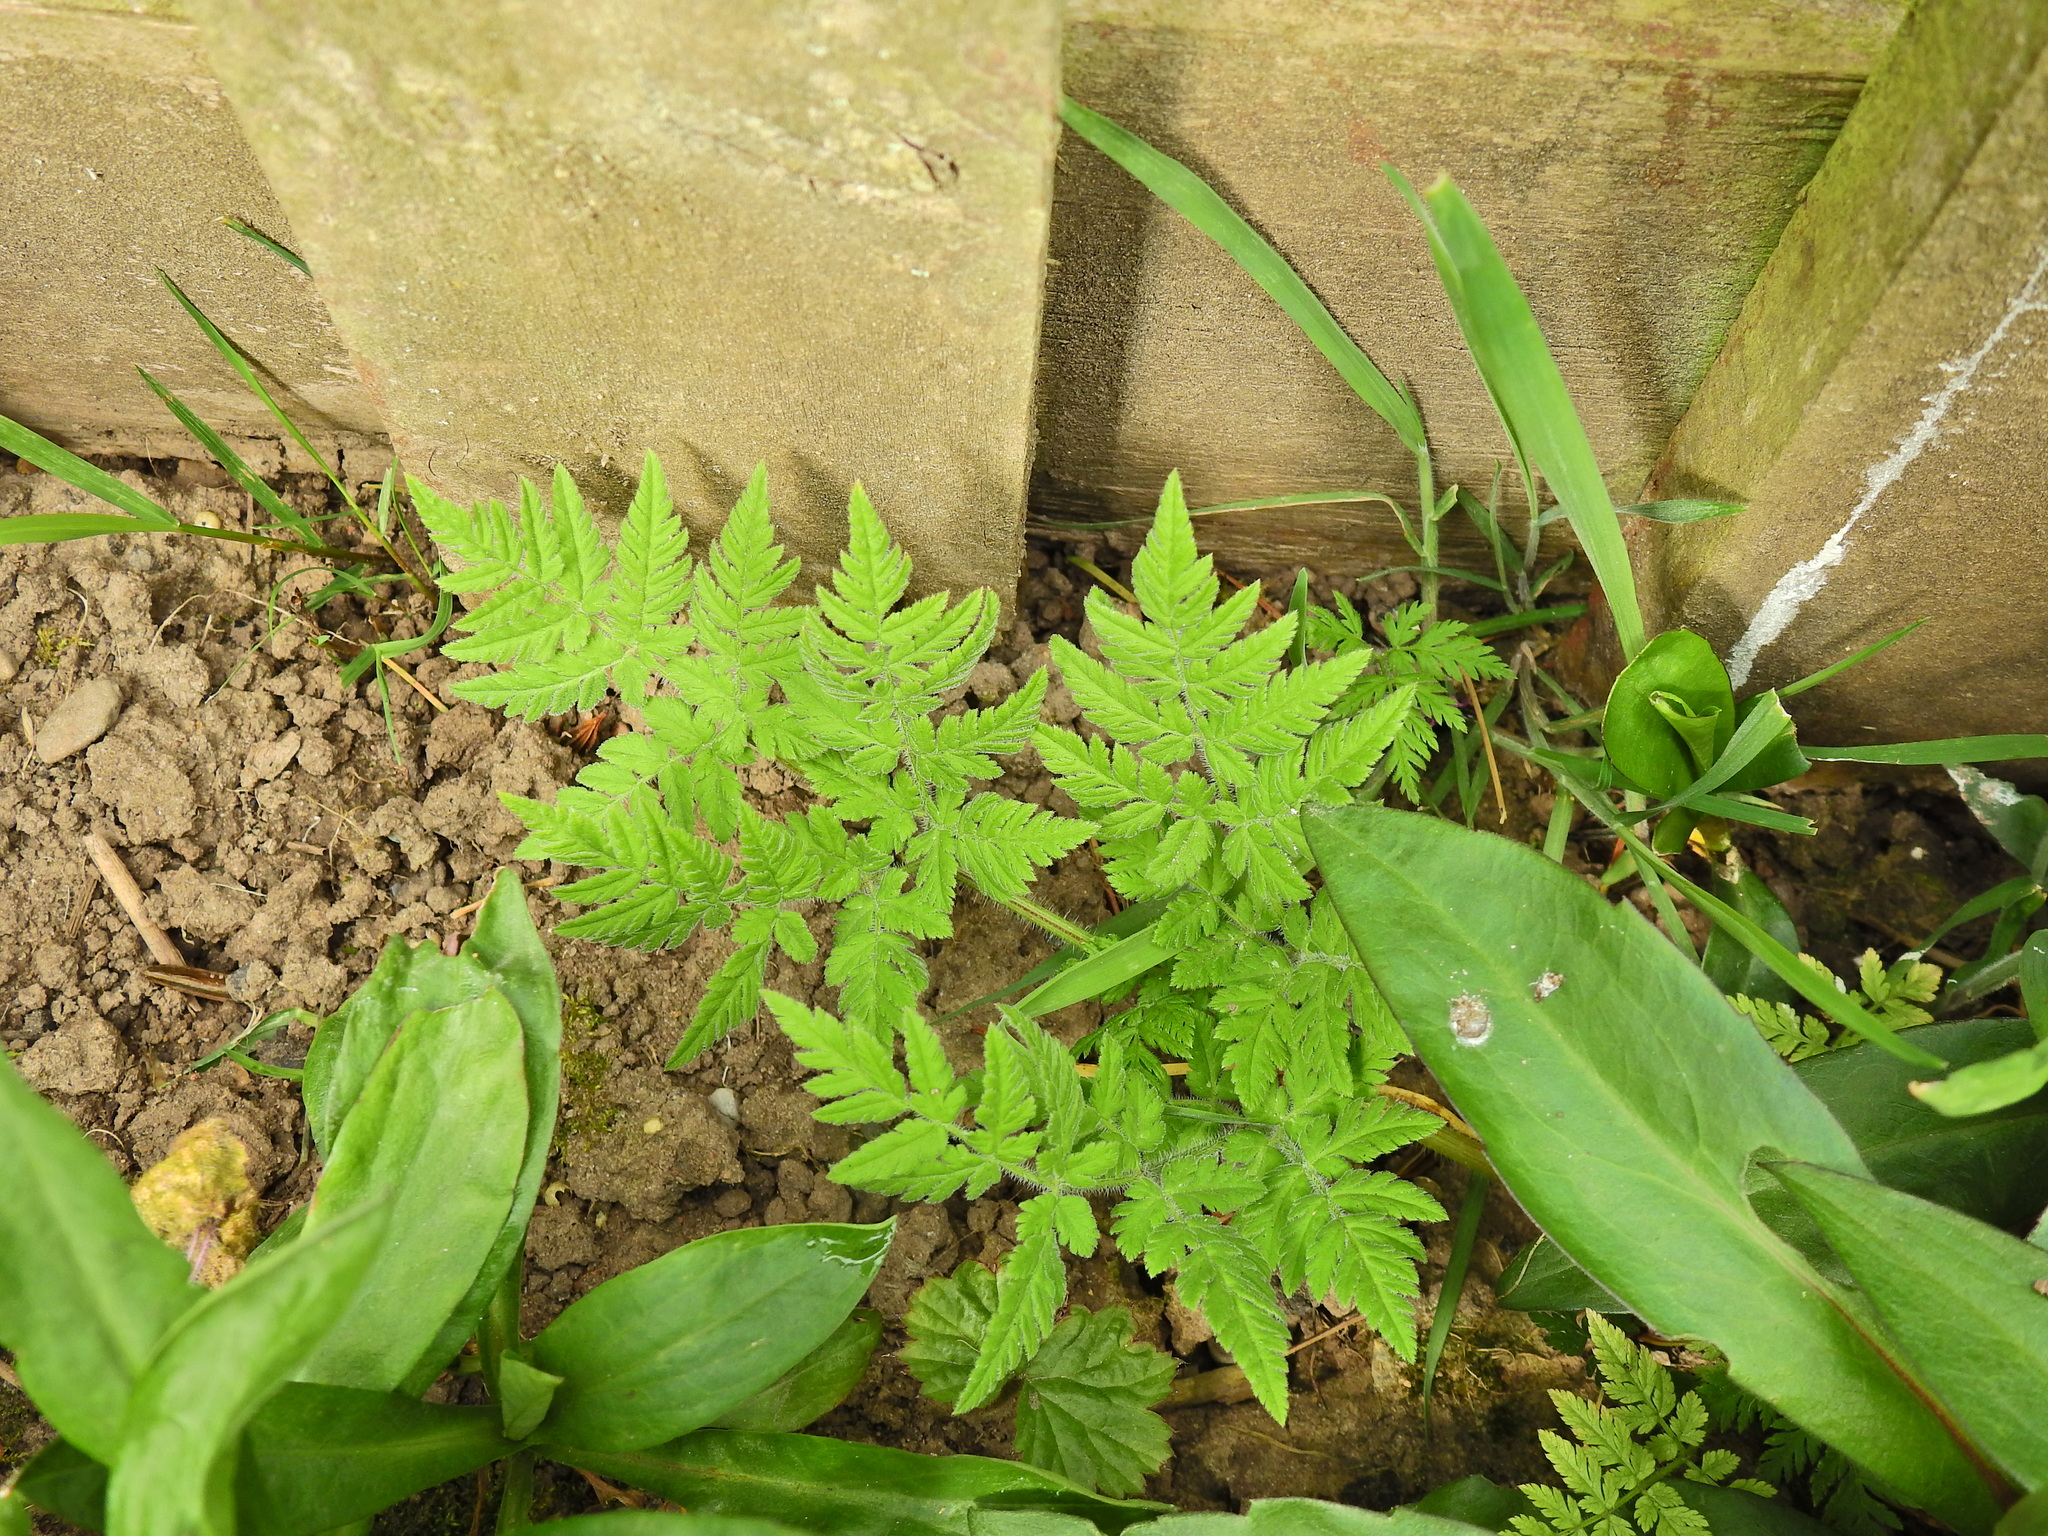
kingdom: Plantae
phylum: Tracheophyta
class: Magnoliopsida
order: Apiales
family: Apiaceae
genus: Myrrhis
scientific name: Myrrhis odorata
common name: Sweet cicely
